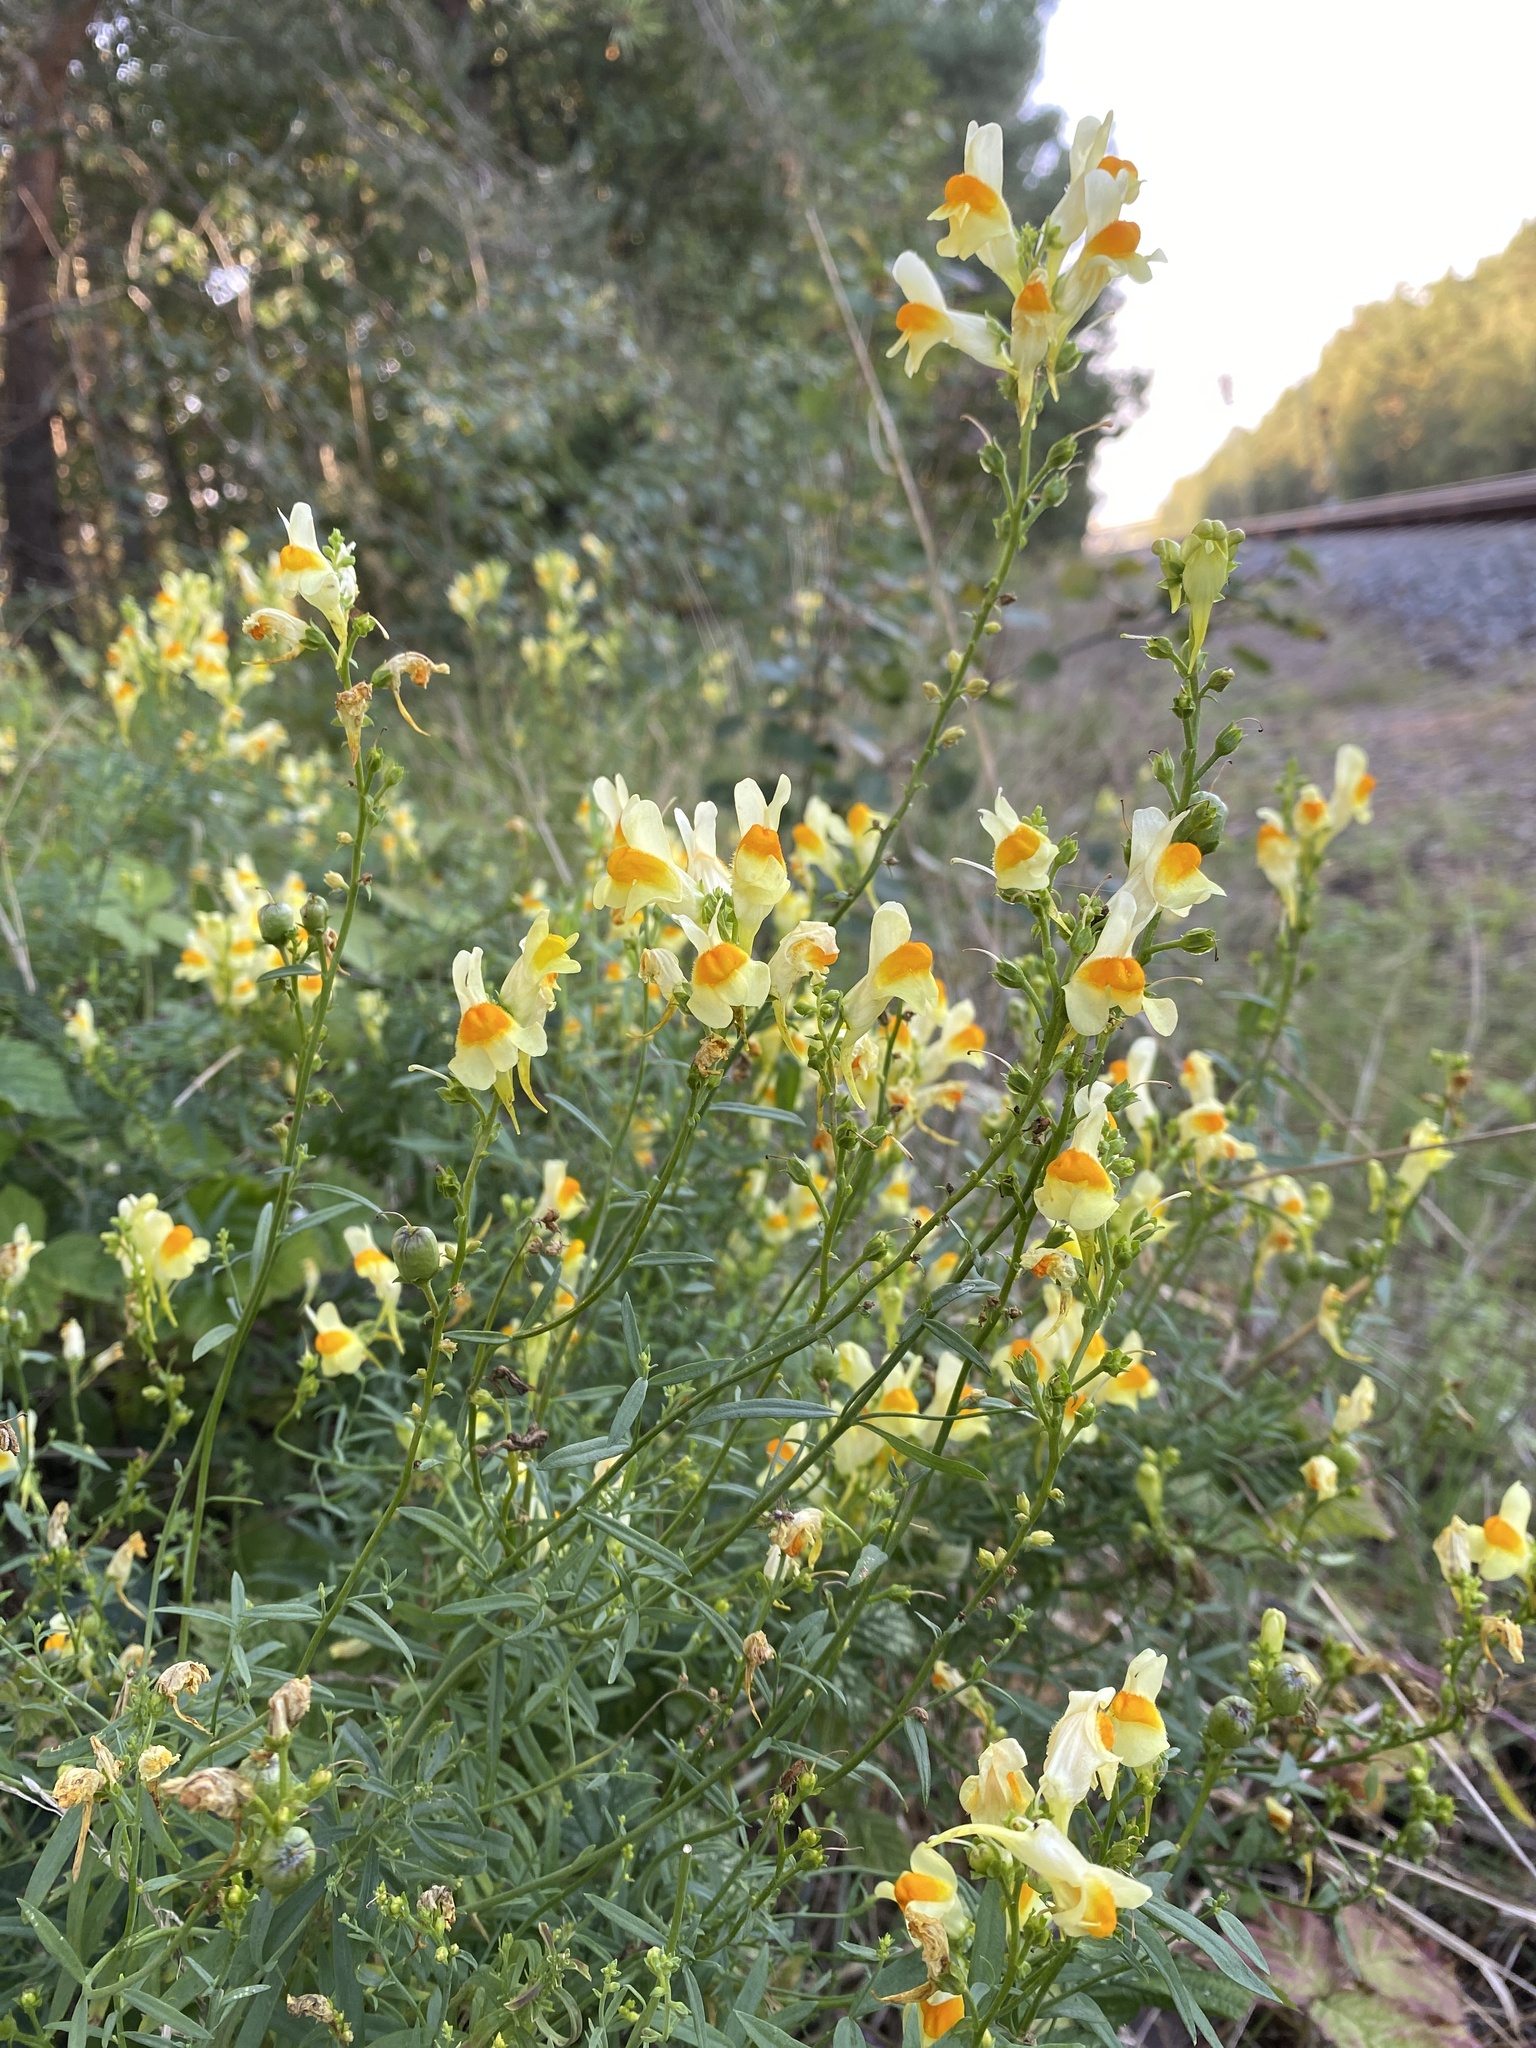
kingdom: Plantae
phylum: Tracheophyta
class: Magnoliopsida
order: Lamiales
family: Plantaginaceae
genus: Linaria
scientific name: Linaria vulgaris
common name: Butter and eggs
